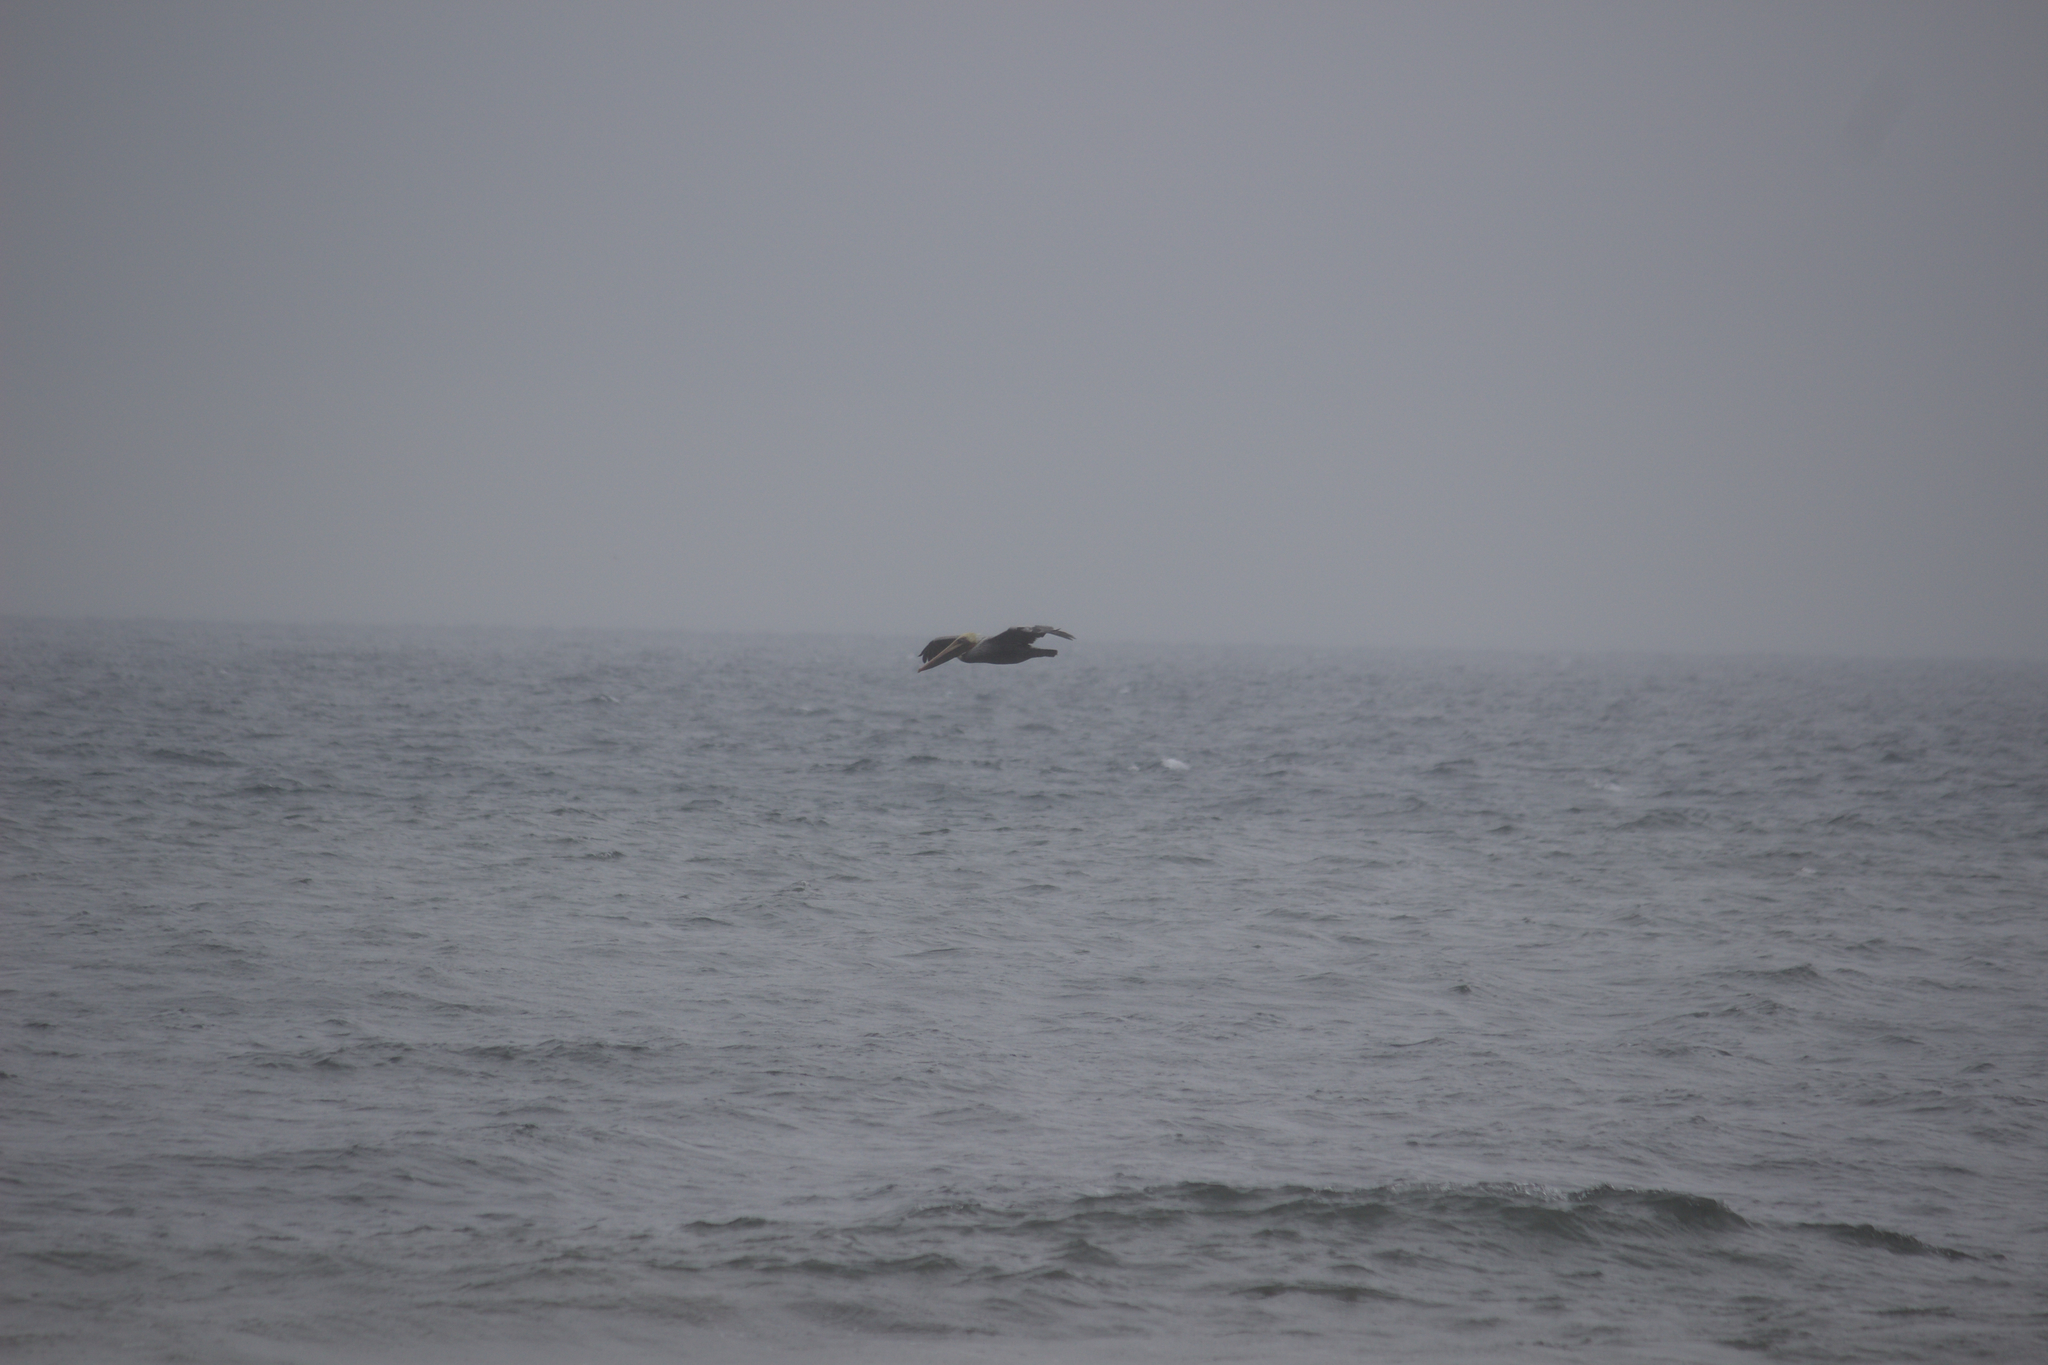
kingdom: Animalia
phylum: Chordata
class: Aves
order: Pelecaniformes
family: Pelecanidae
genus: Pelecanus
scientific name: Pelecanus occidentalis
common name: Brown pelican
